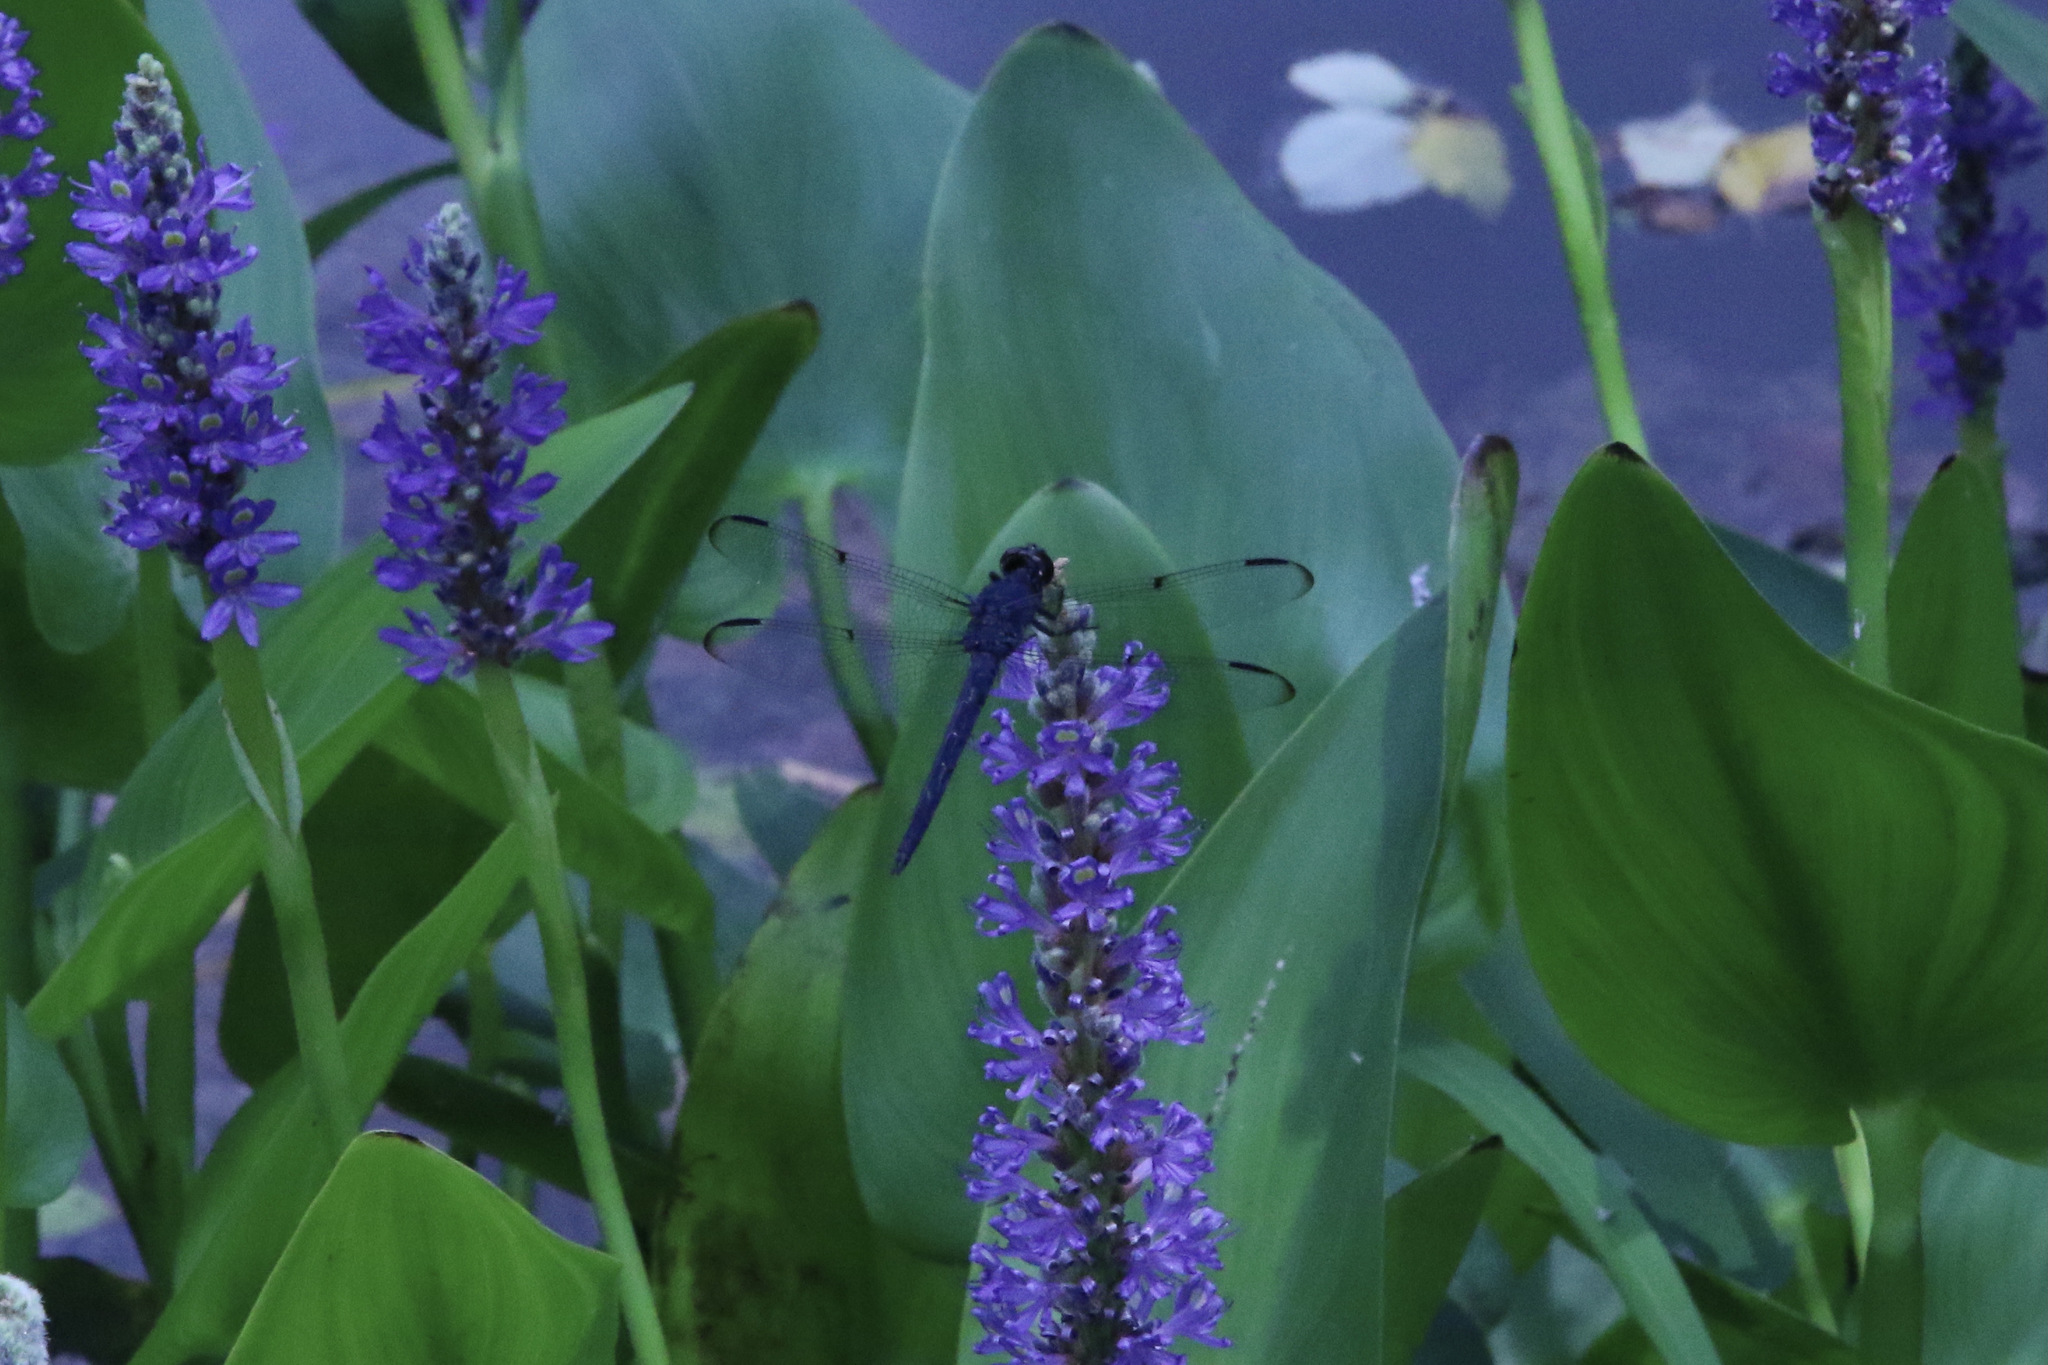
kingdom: Animalia
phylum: Arthropoda
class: Insecta
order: Odonata
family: Libellulidae
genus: Libellula
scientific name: Libellula incesta
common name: Slaty skimmer
